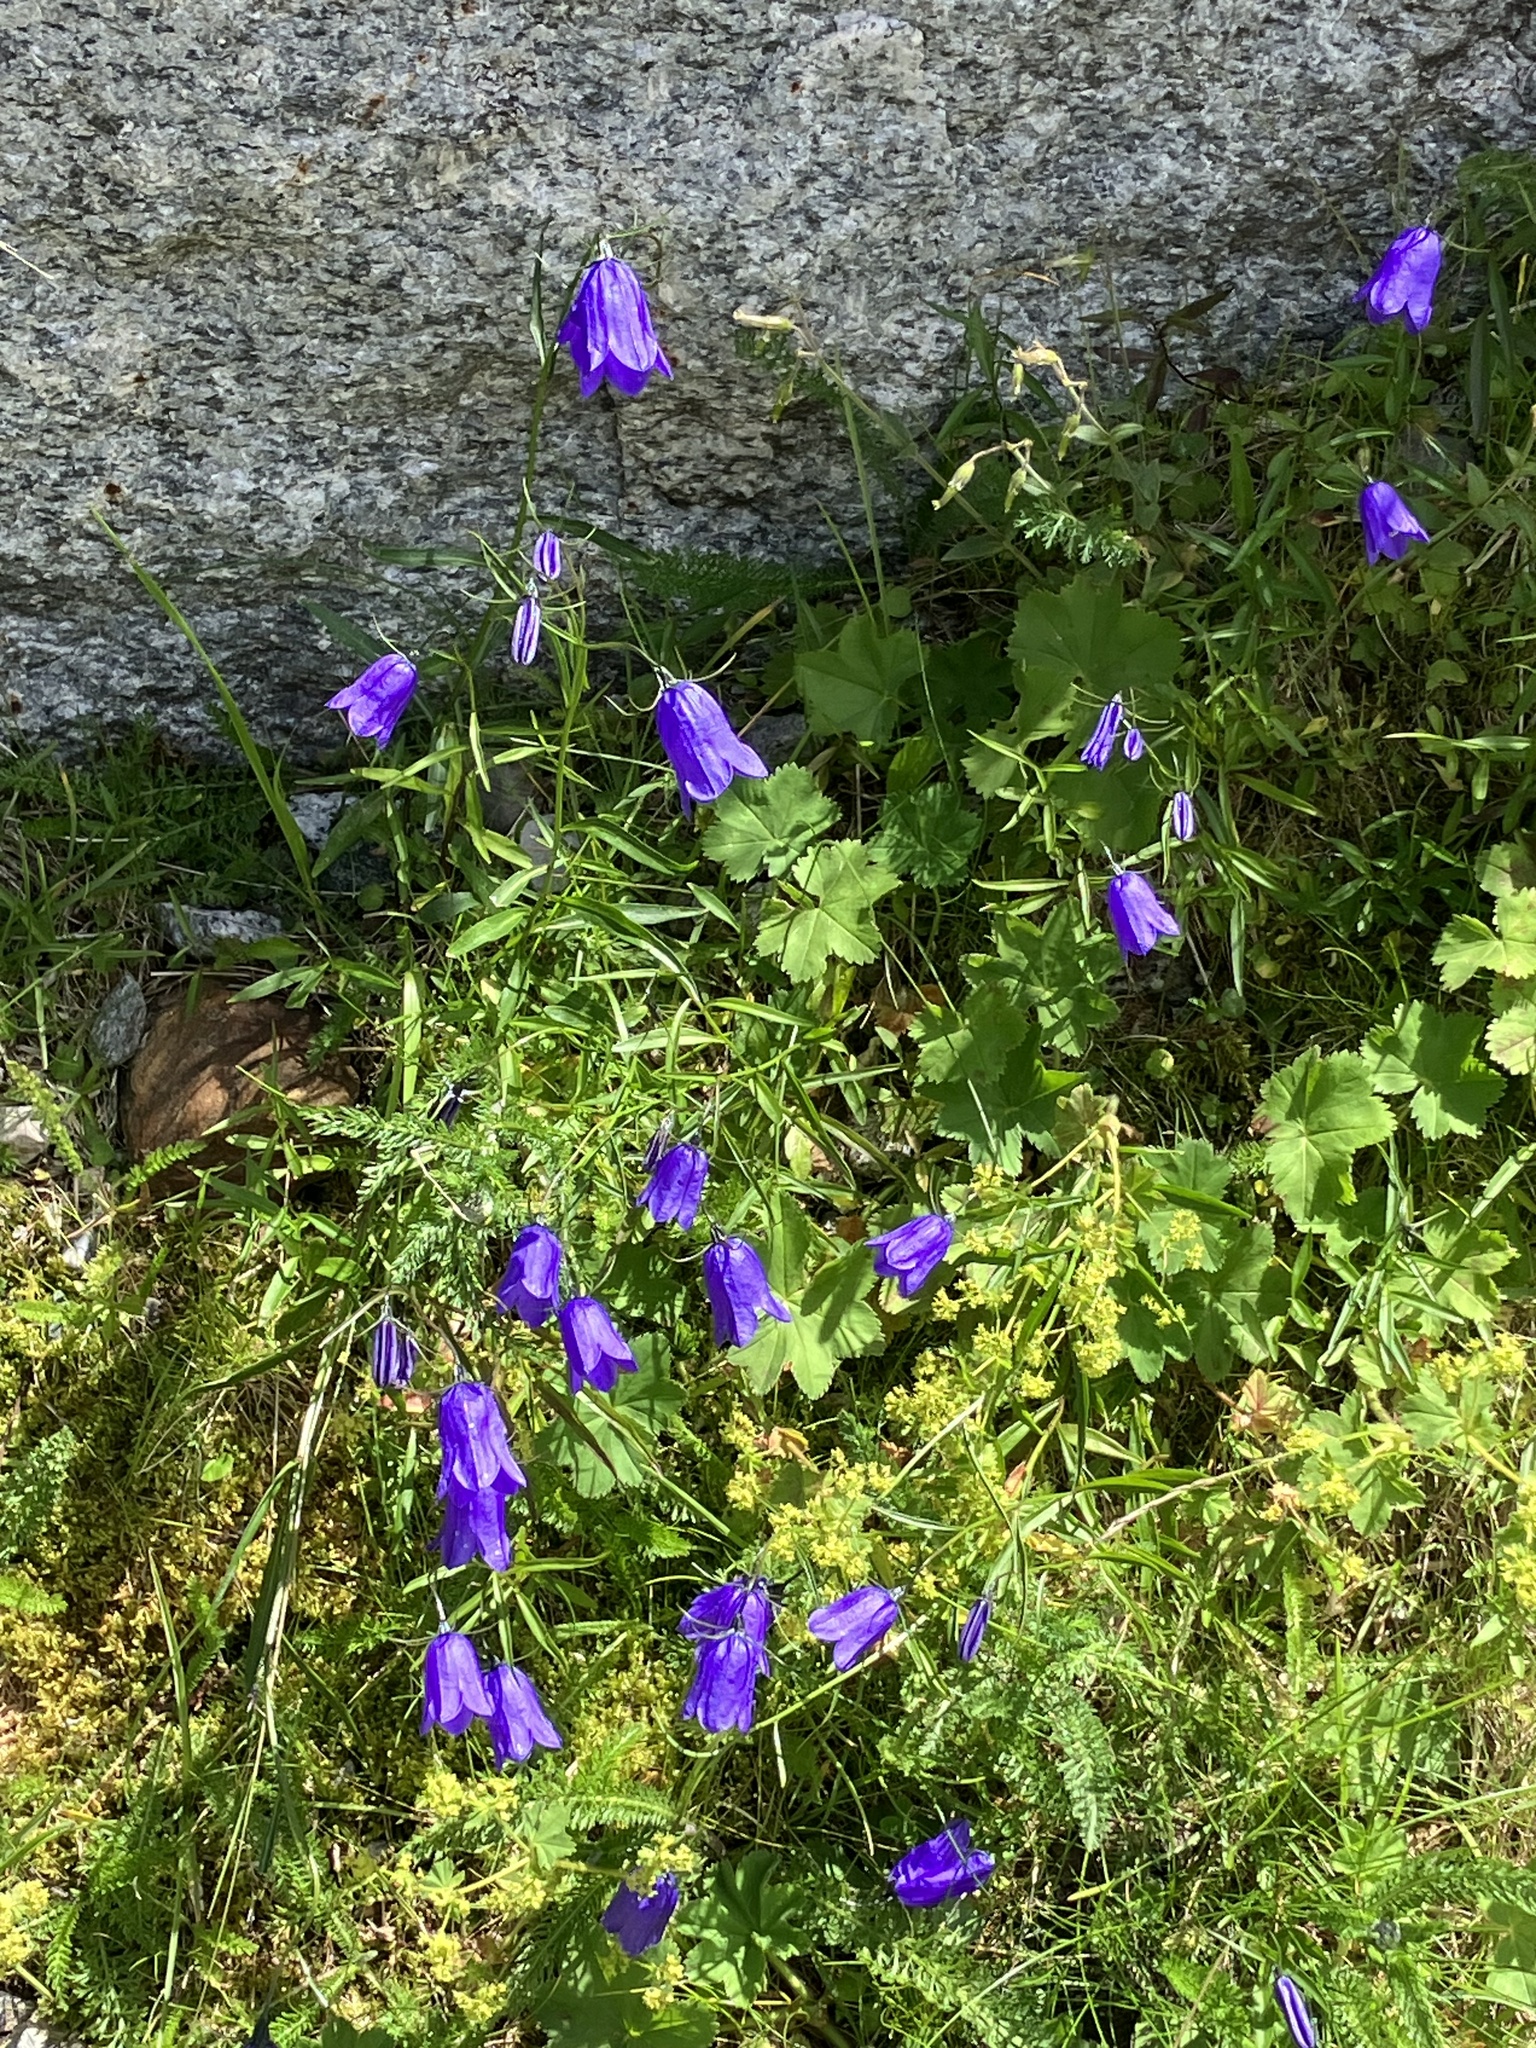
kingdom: Plantae
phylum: Tracheophyta
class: Magnoliopsida
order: Asterales
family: Campanulaceae
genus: Campanula
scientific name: Campanula scheuchzeri
